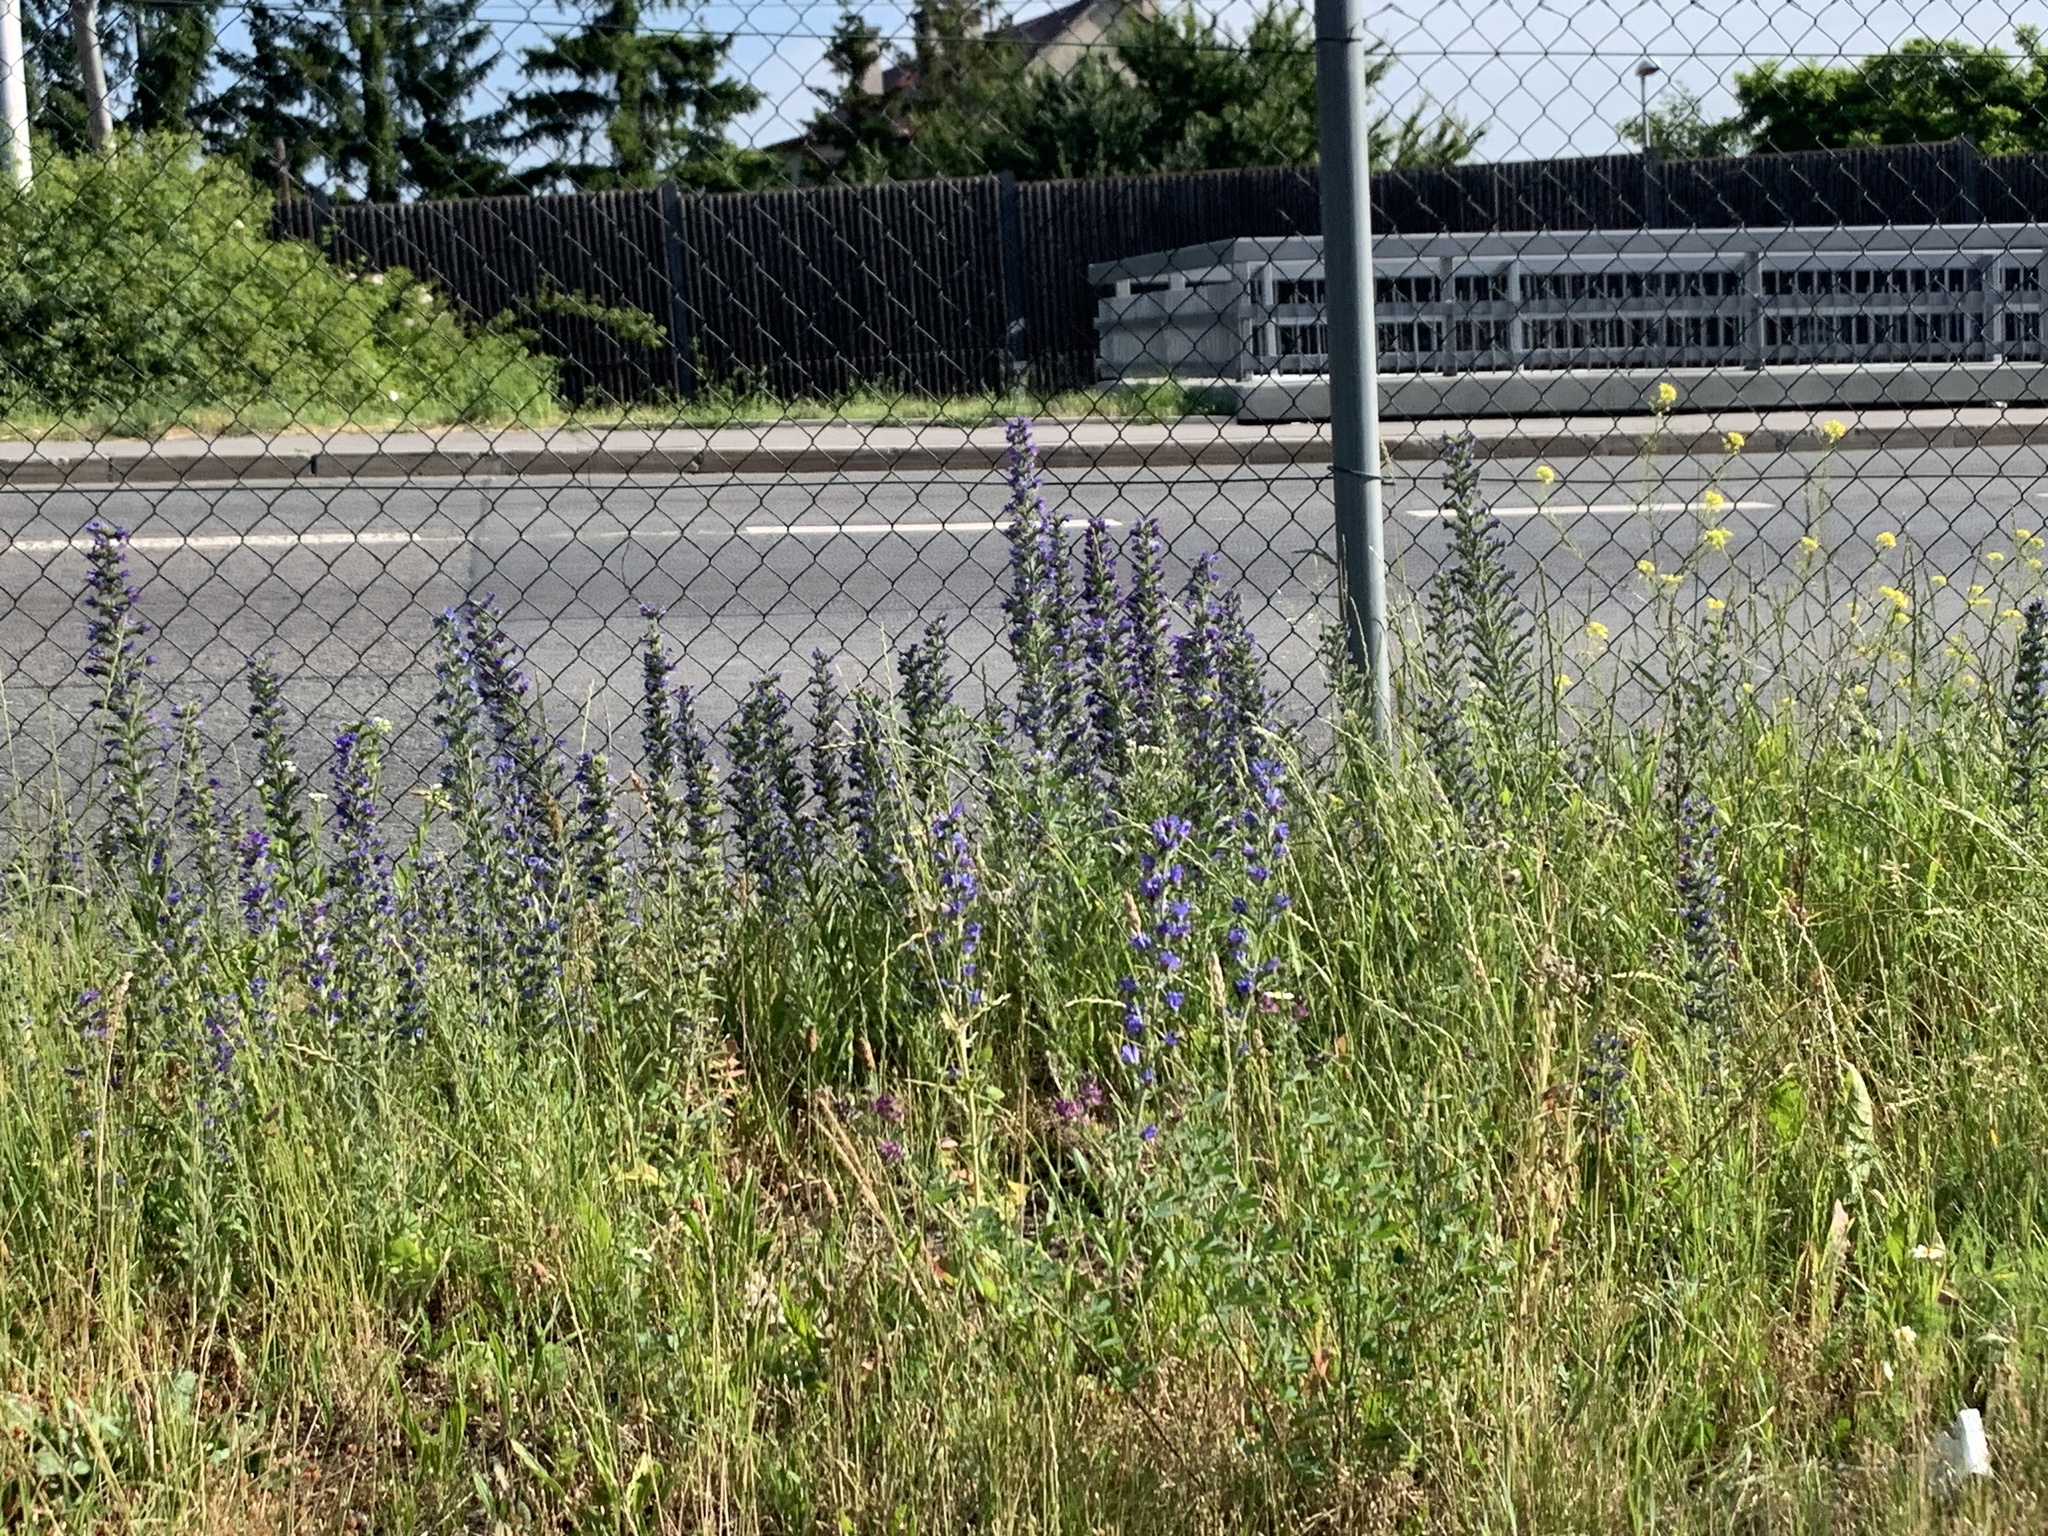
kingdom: Plantae
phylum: Tracheophyta
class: Magnoliopsida
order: Boraginales
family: Boraginaceae
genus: Echium
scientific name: Echium vulgare
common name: Common viper's bugloss
